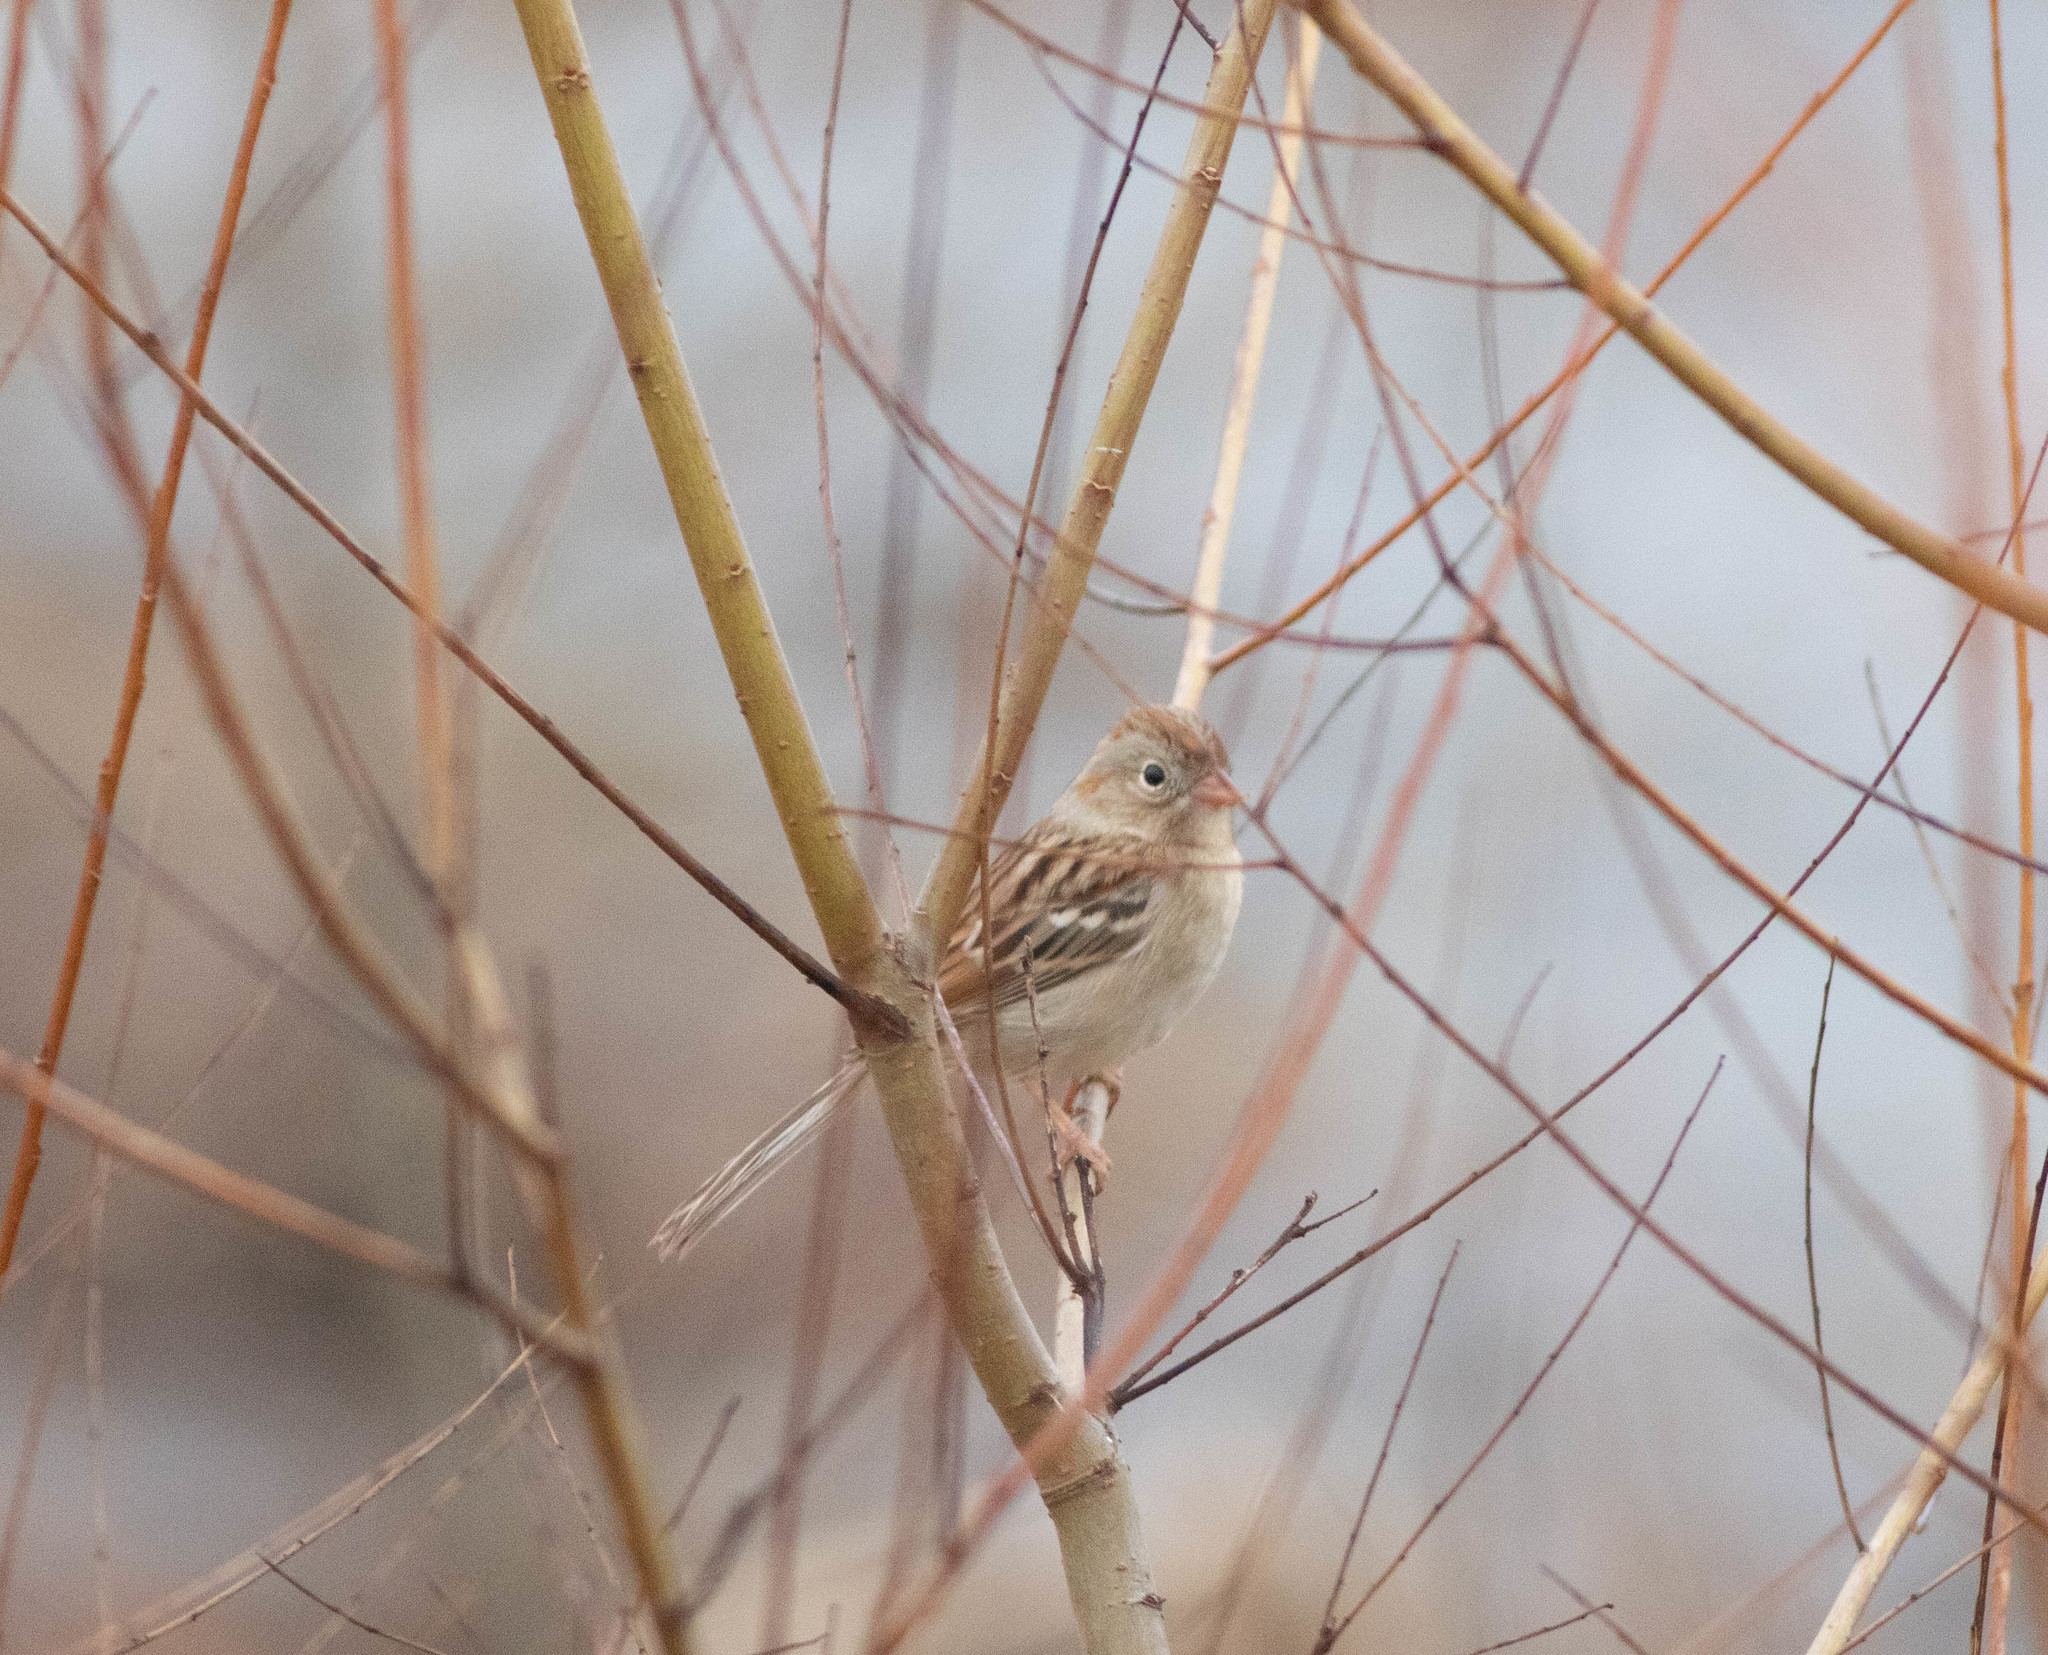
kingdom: Animalia
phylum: Chordata
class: Aves
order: Passeriformes
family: Passerellidae
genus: Spizella
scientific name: Spizella pusilla
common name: Field sparrow
